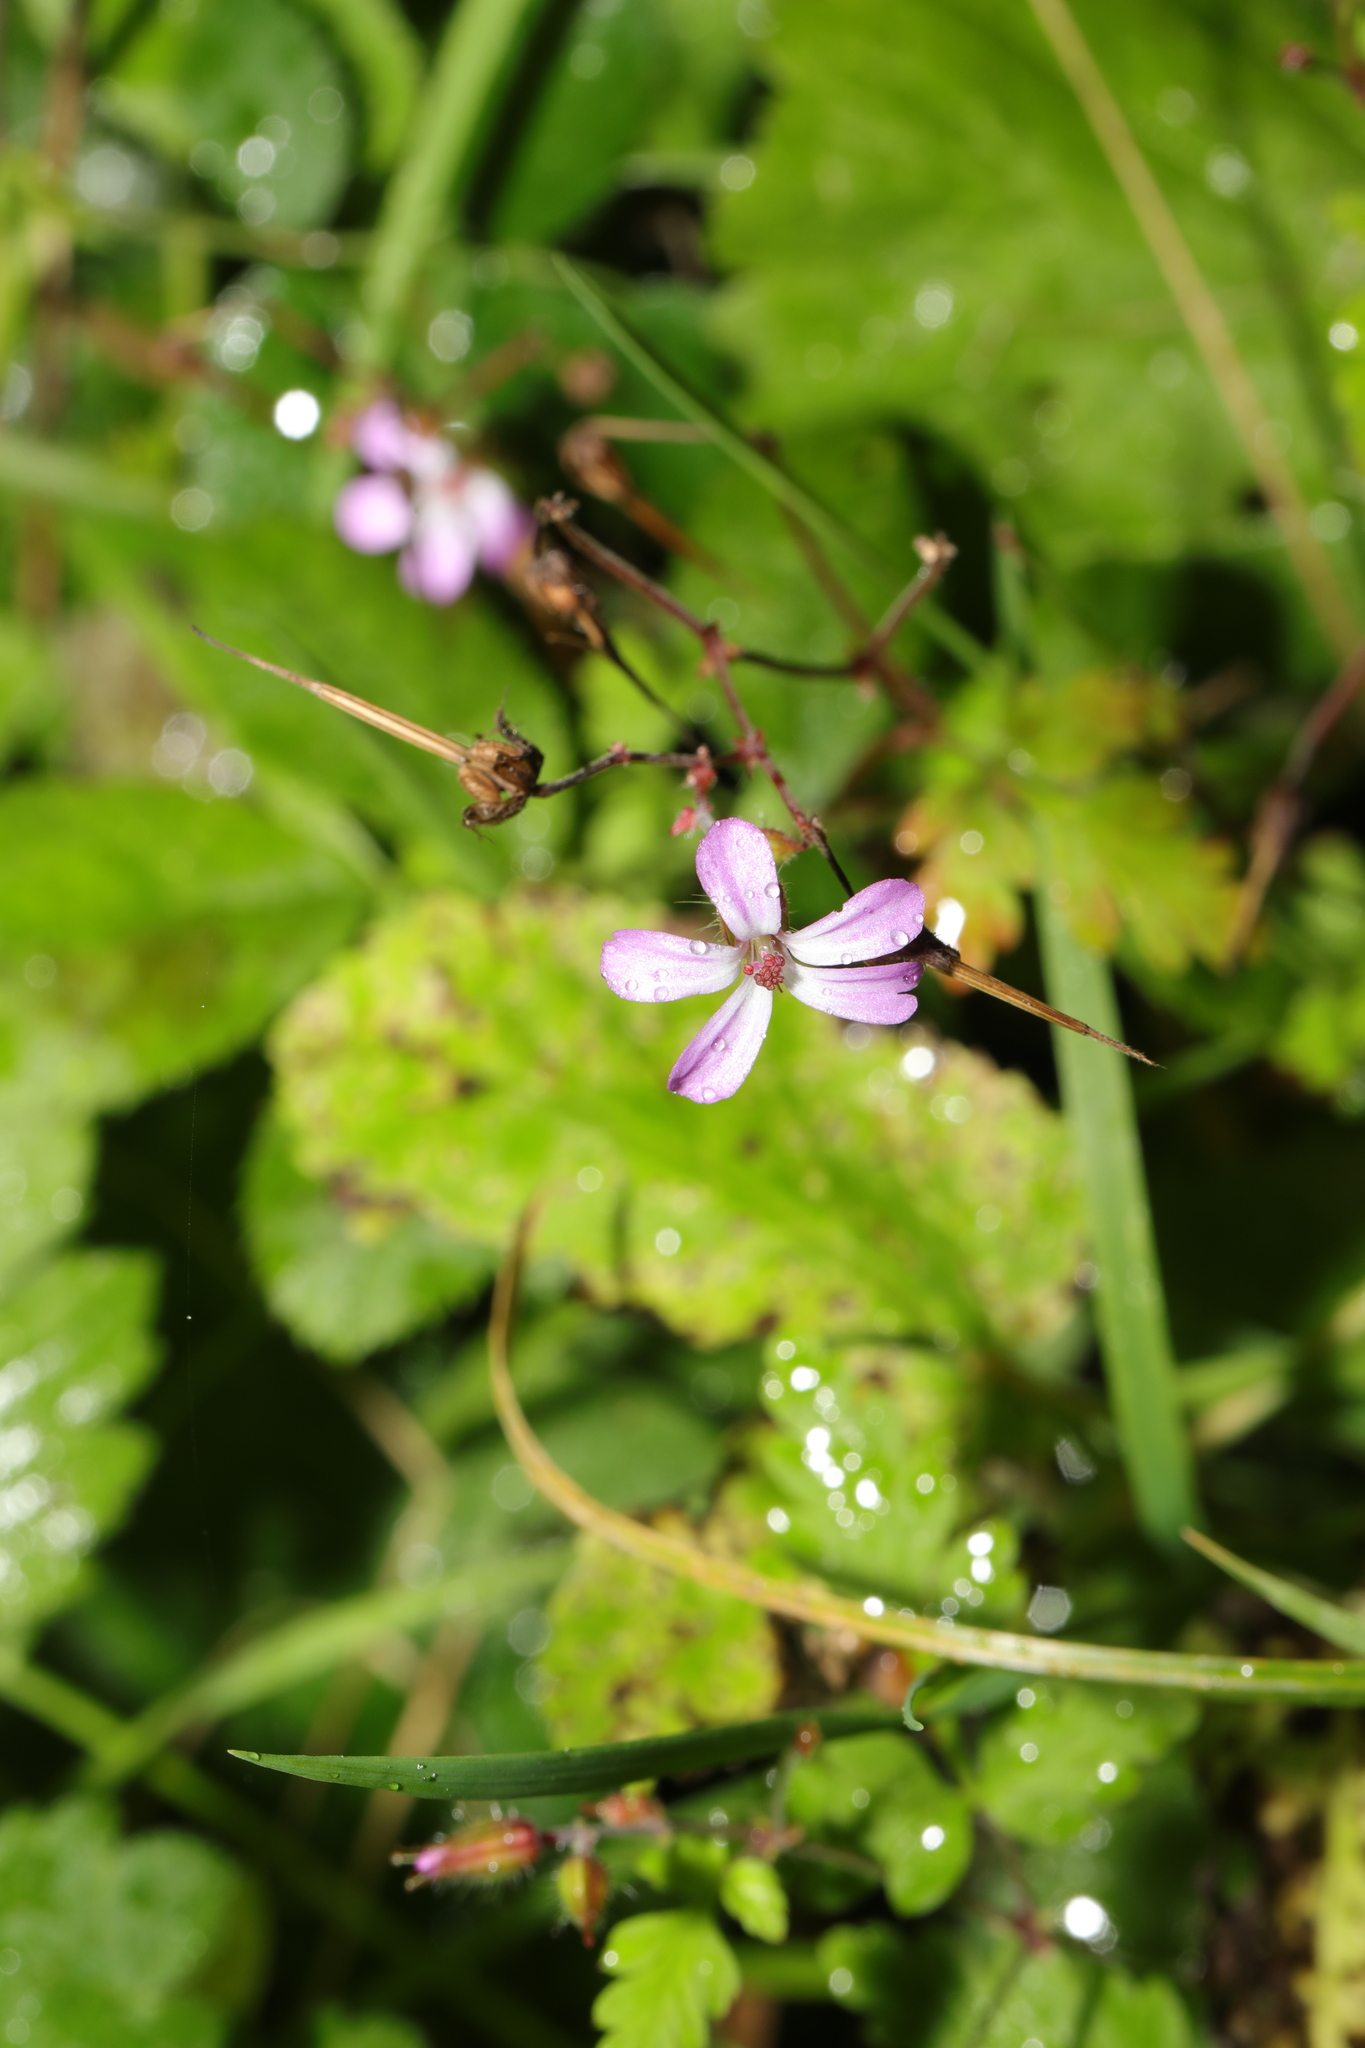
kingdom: Plantae
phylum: Tracheophyta
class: Magnoliopsida
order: Geraniales
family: Geraniaceae
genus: Geranium
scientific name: Geranium robertianum
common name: Herb-robert
